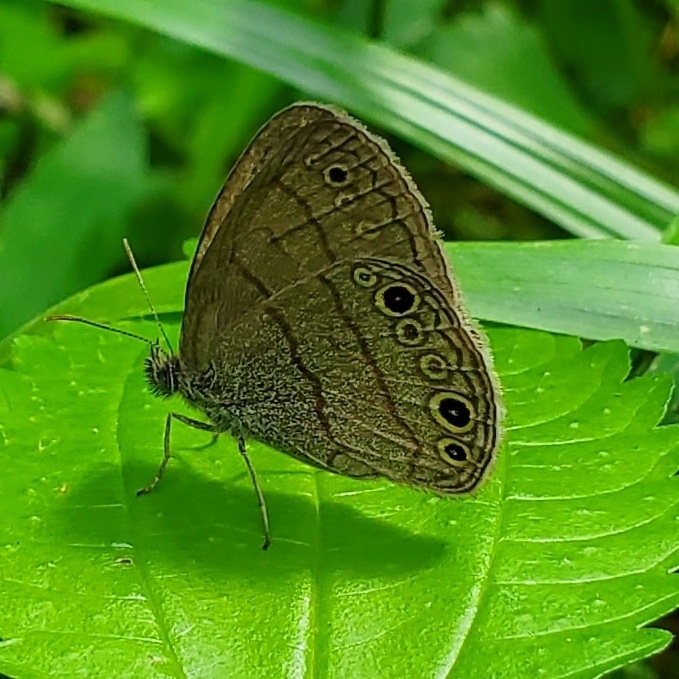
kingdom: Animalia
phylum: Arthropoda
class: Insecta
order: Lepidoptera
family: Nymphalidae
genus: Hermeuptychia
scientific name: Hermeuptychia hermes
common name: Hermes satyr
